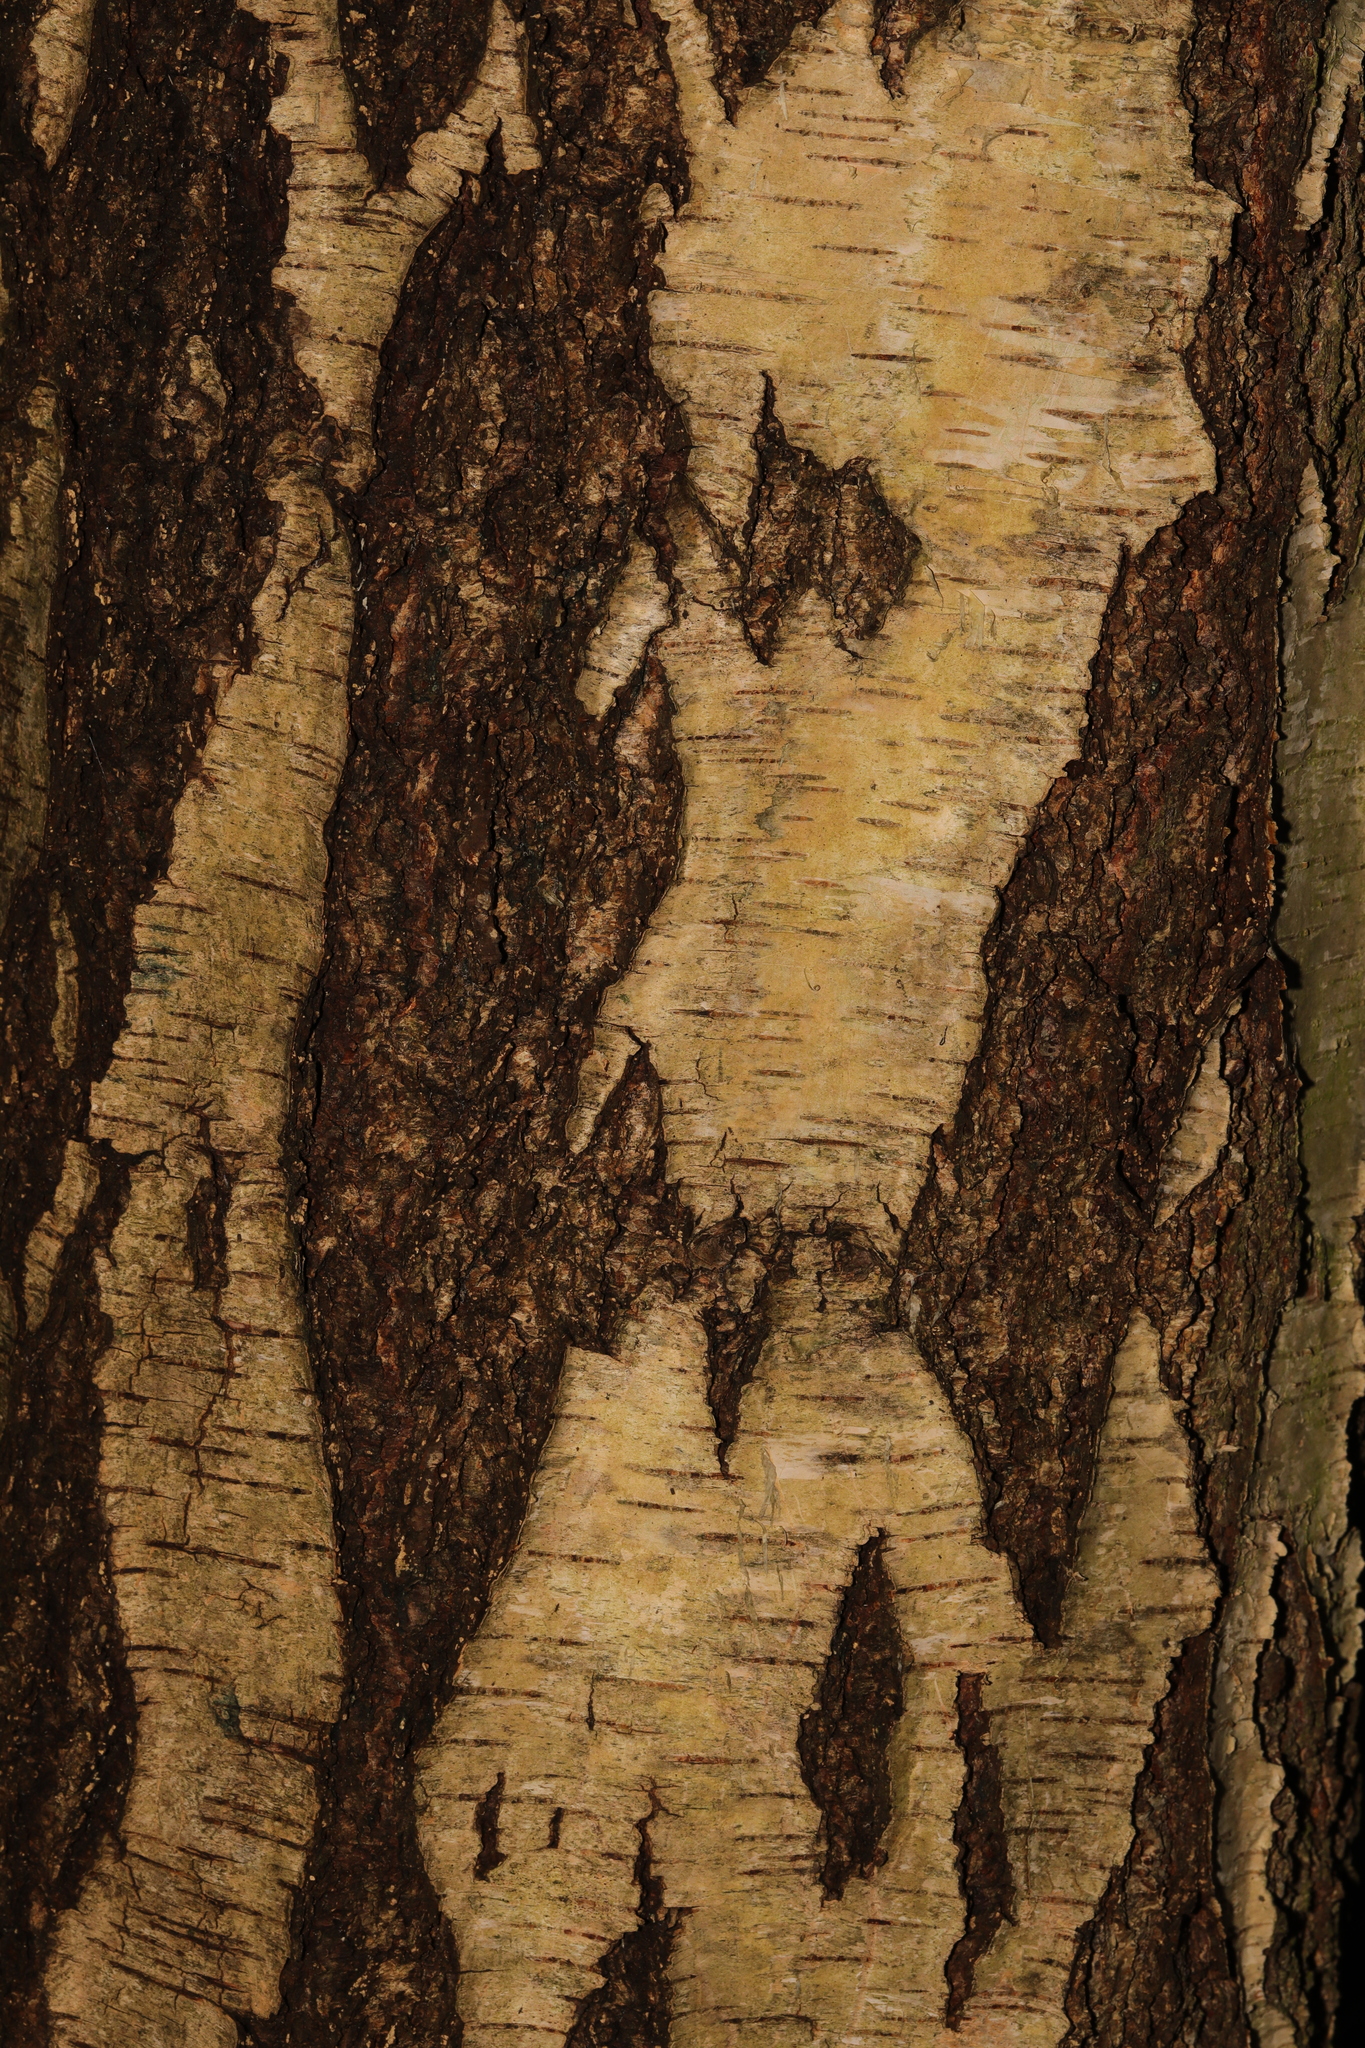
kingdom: Plantae
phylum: Tracheophyta
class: Magnoliopsida
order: Fagales
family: Betulaceae
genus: Betula
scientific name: Betula pendula
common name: Silver birch
